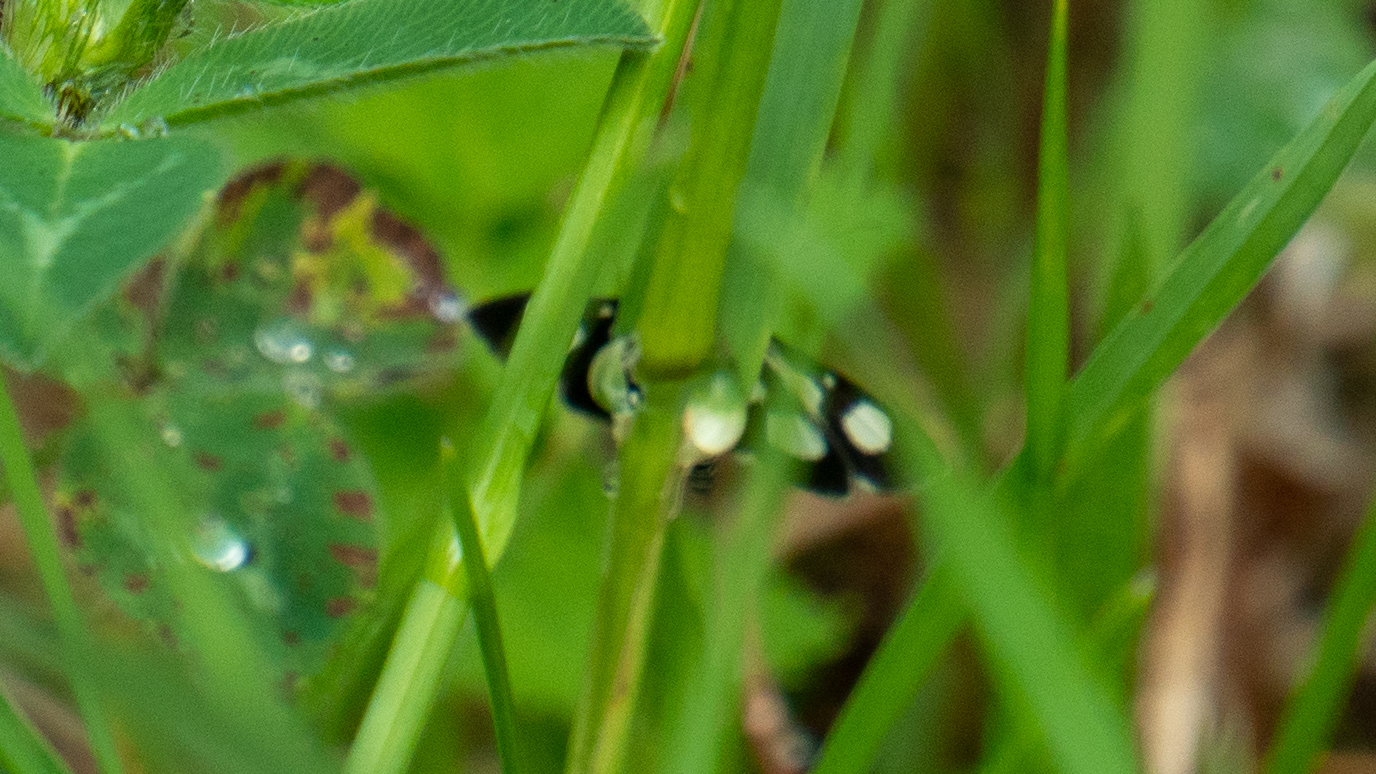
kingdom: Animalia
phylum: Arthropoda
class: Insecta
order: Lepidoptera
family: Crambidae
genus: Anania
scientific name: Anania funebris
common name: White-spotted sable moth
